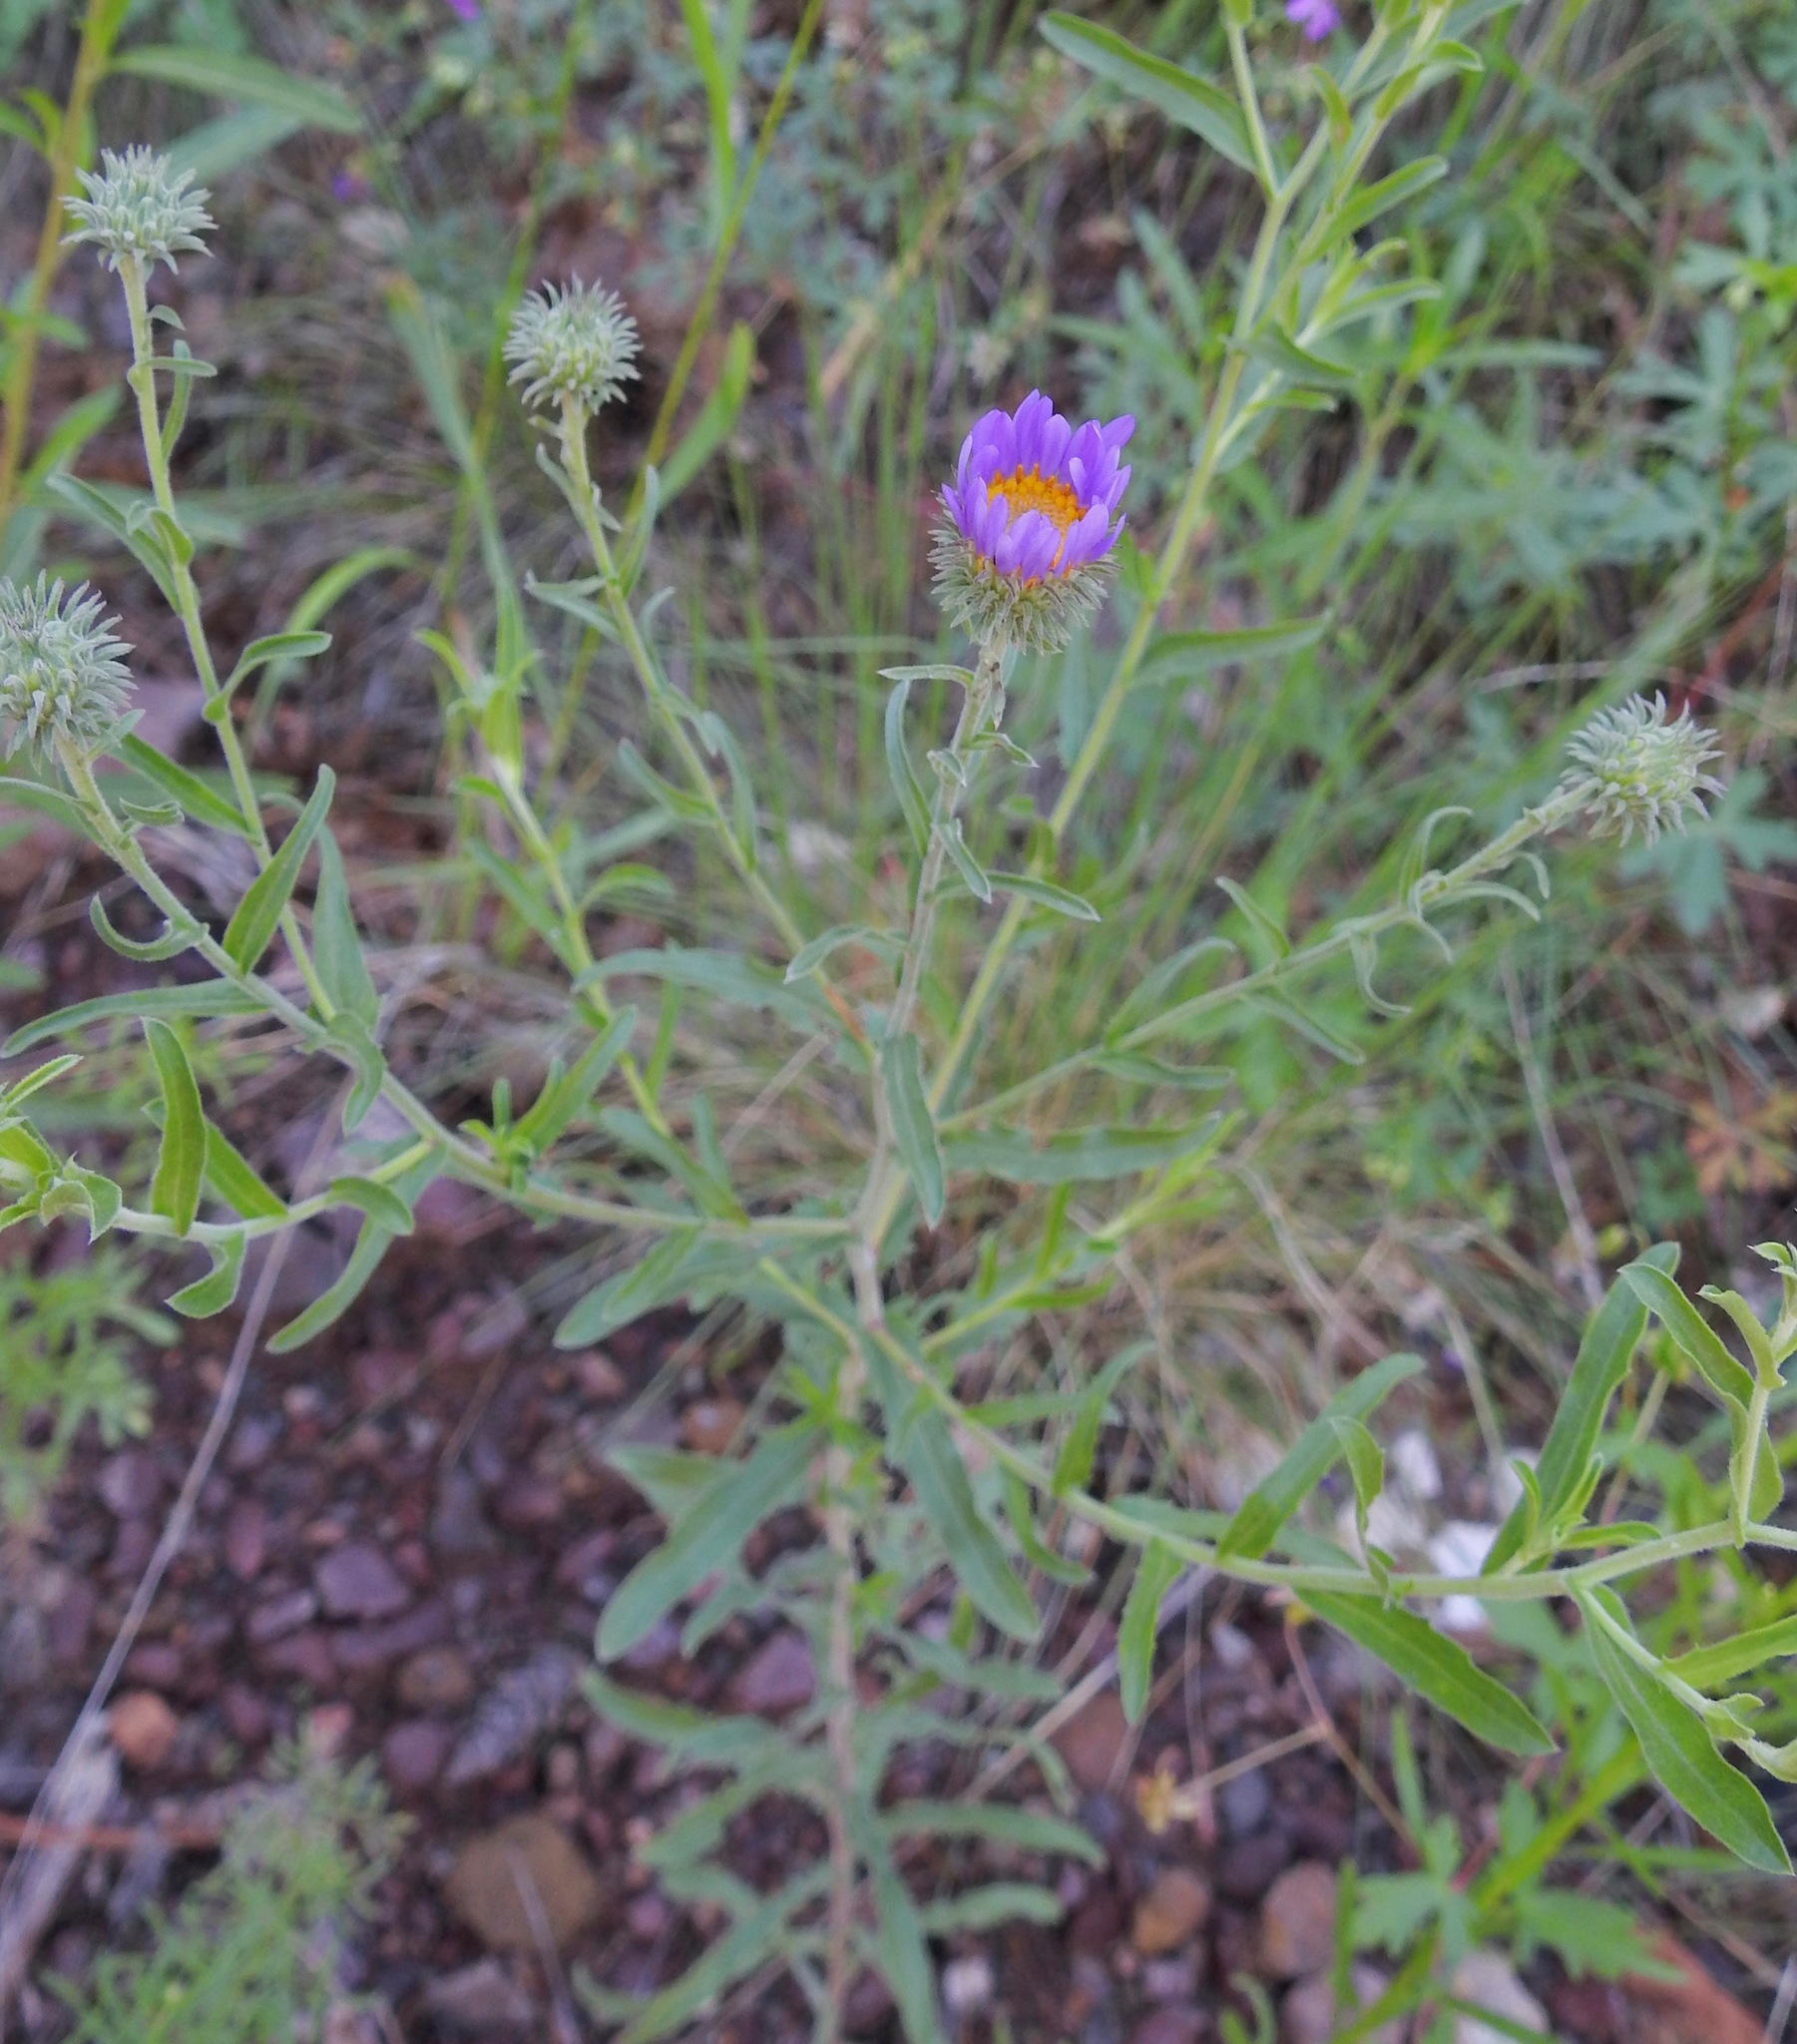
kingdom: Plantae
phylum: Tracheophyta
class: Magnoliopsida
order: Asterales
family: Asteraceae
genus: Dieteria
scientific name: Dieteria canescens
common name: Hoary-aster
